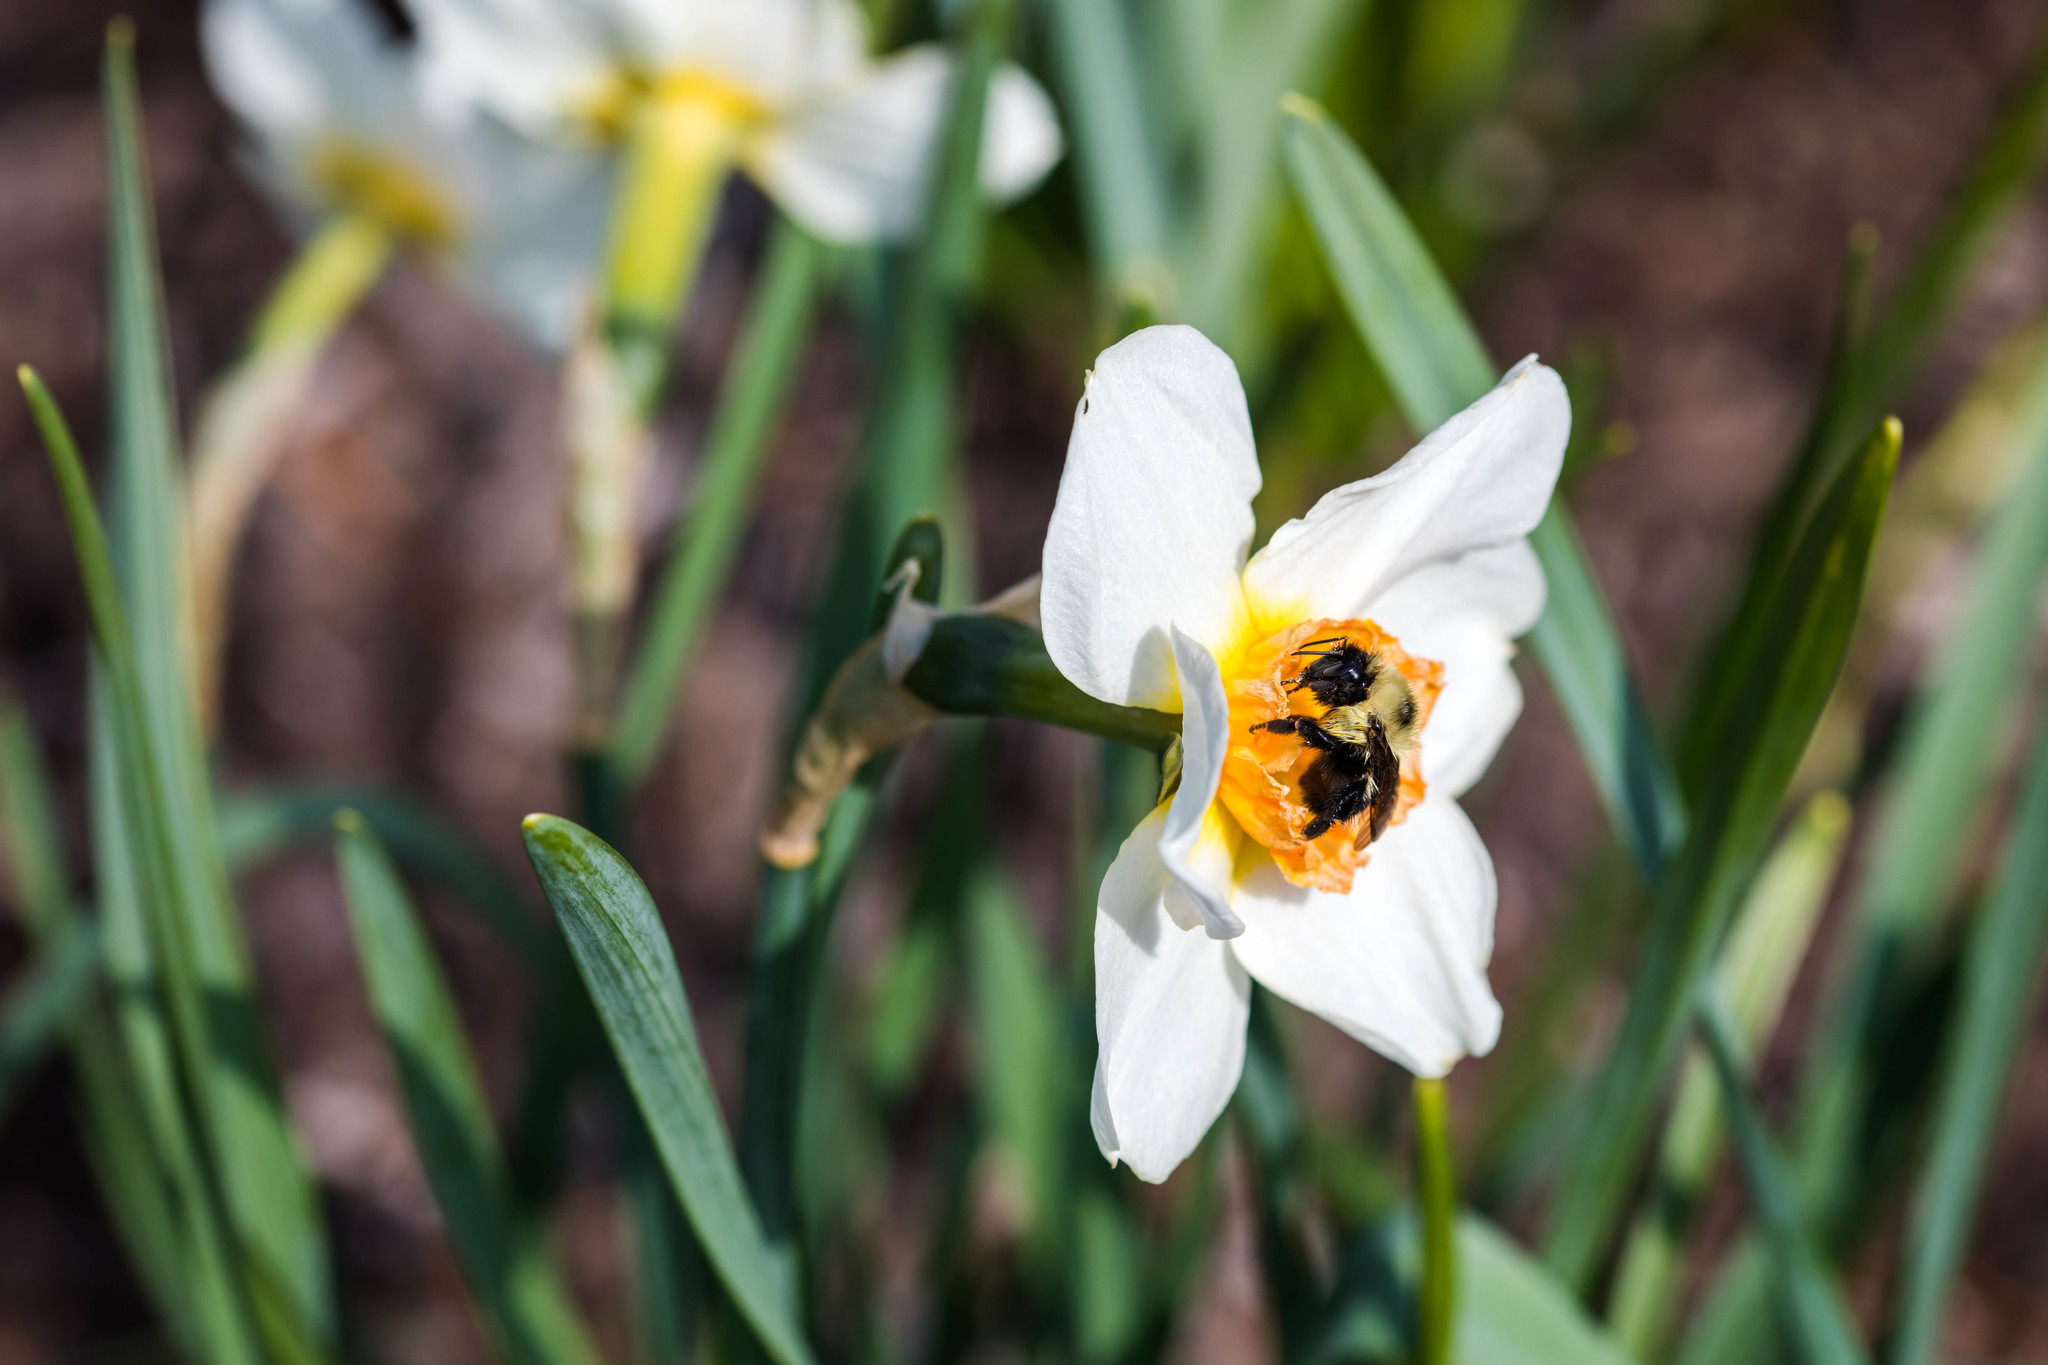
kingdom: Animalia
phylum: Arthropoda
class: Insecta
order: Hymenoptera
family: Apidae
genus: Bombus
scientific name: Bombus bimaculatus
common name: Two-spotted bumble bee
